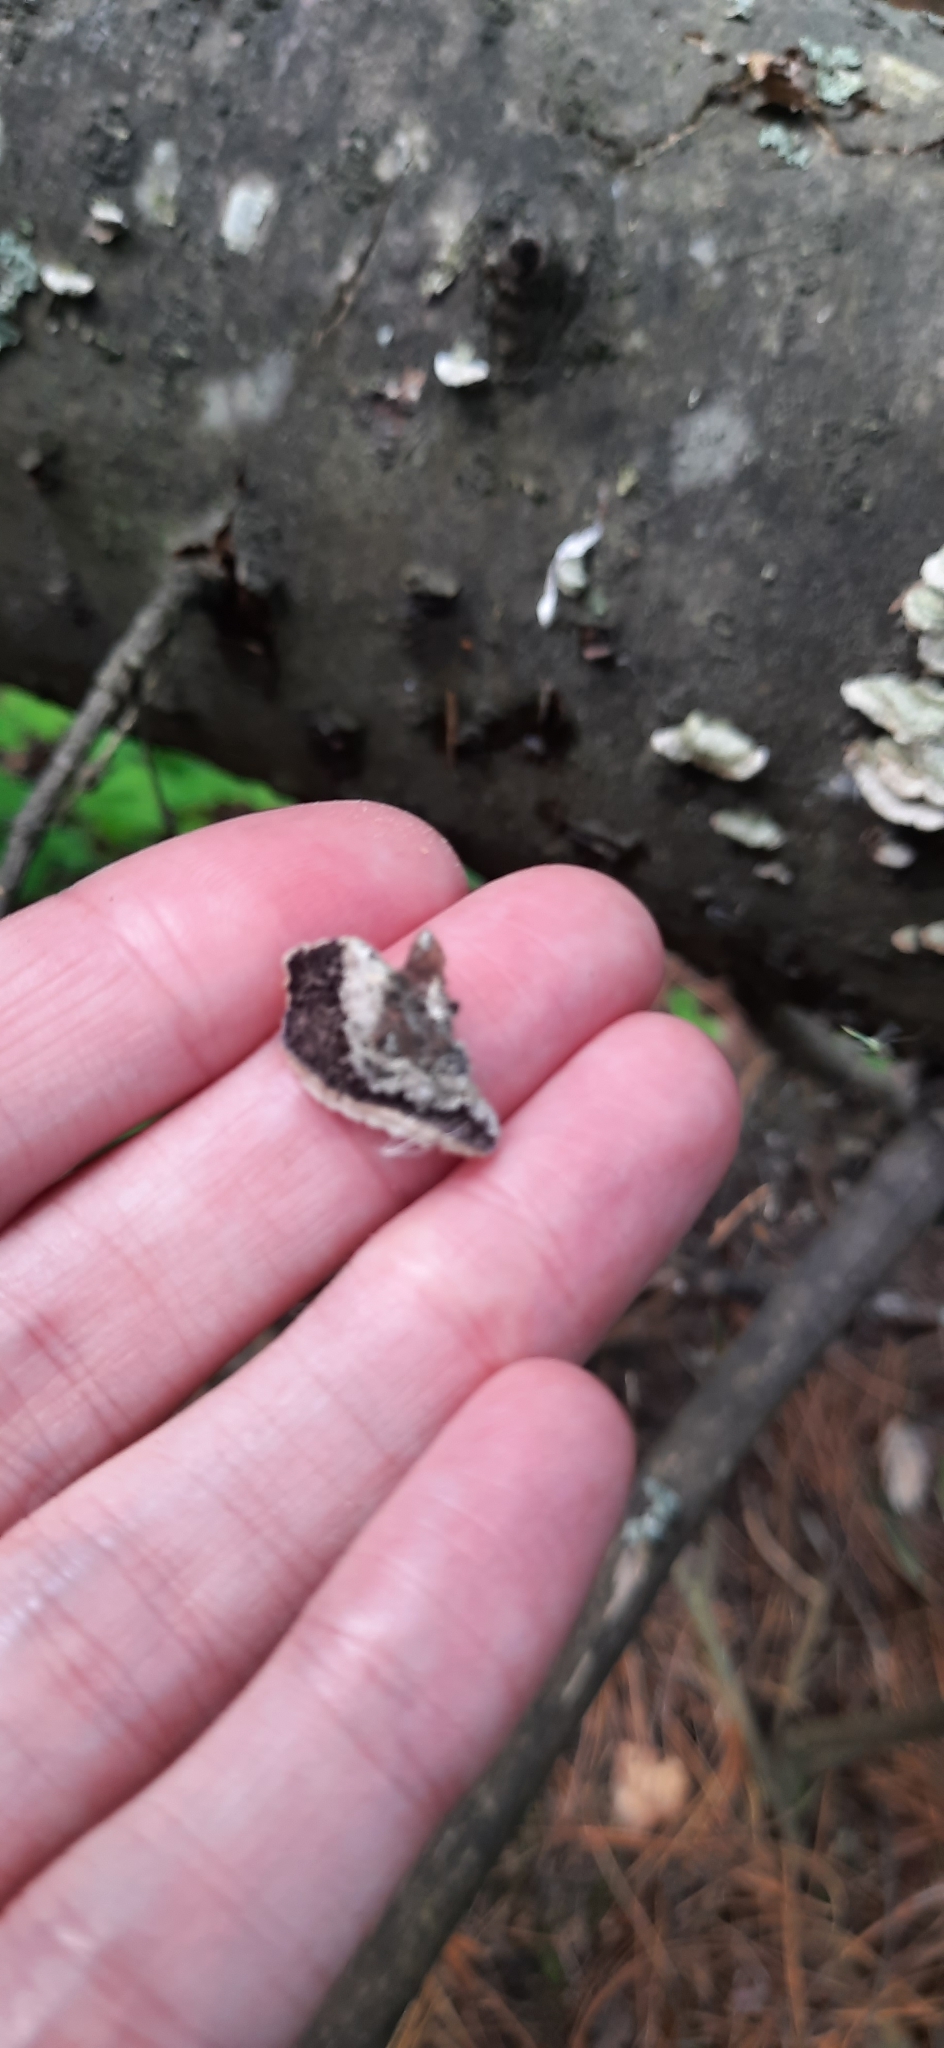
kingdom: Fungi
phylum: Basidiomycota
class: Agaricomycetes
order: Hymenochaetales
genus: Trichaptum
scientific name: Trichaptum abietinum
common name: Purplepore bracket
